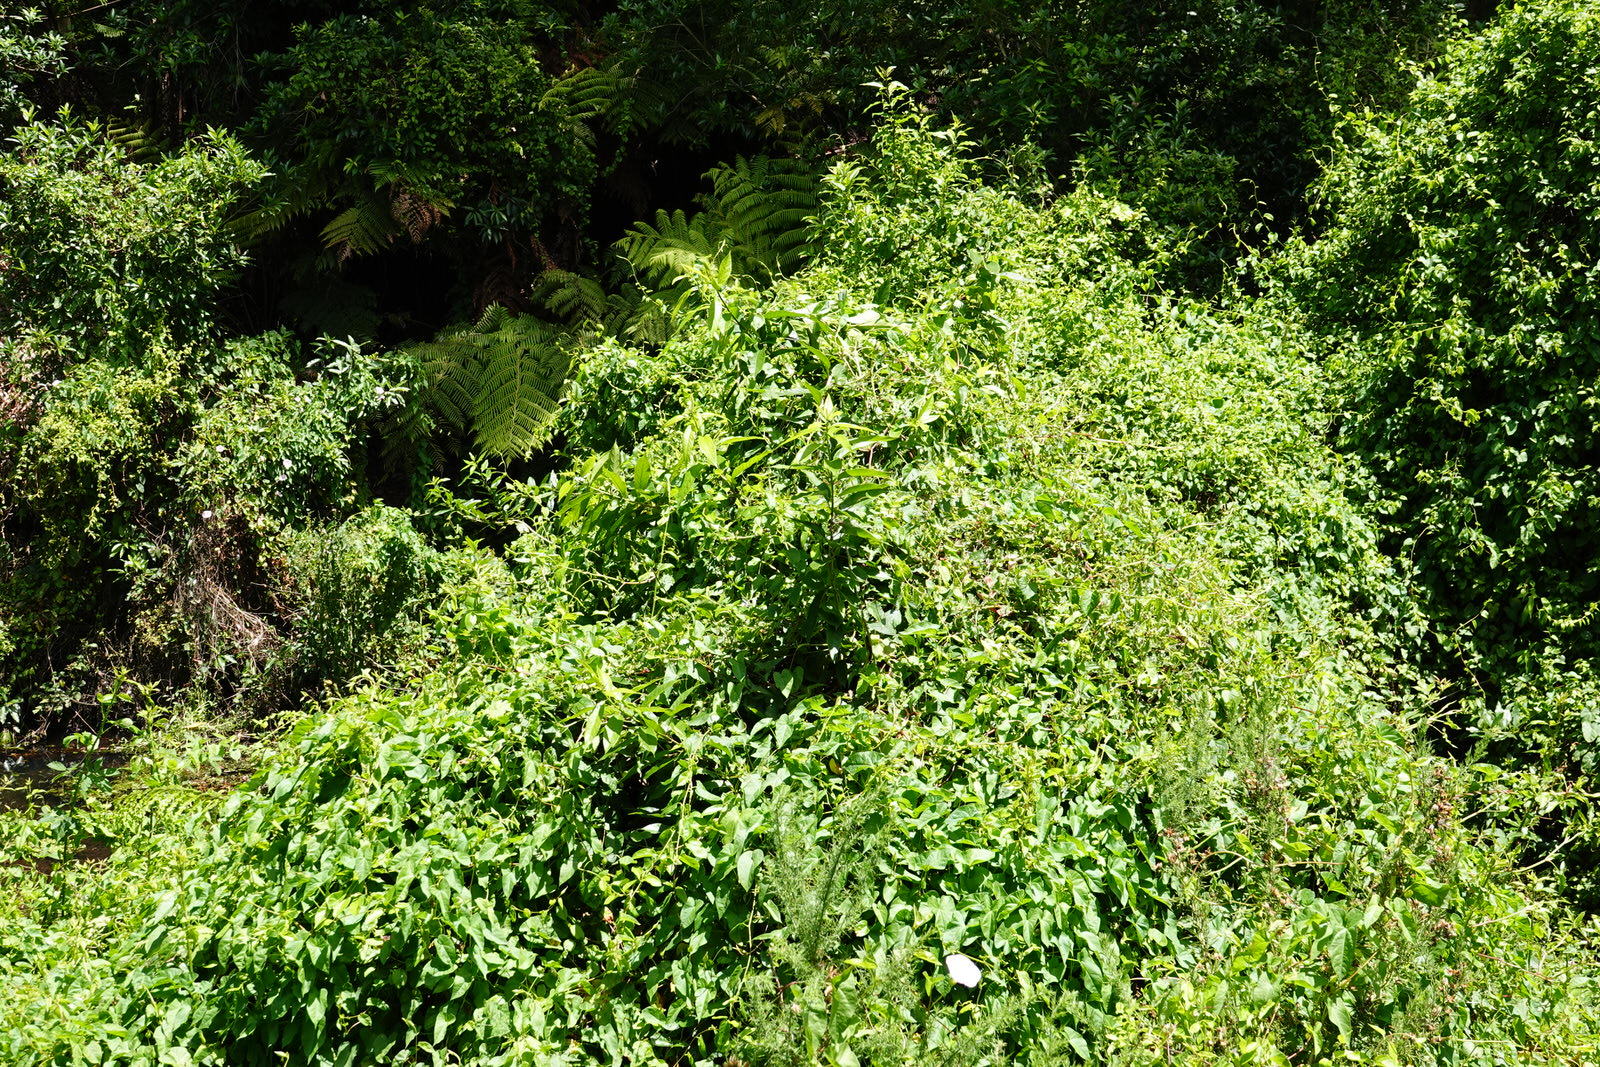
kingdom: Plantae
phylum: Tracheophyta
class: Magnoliopsida
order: Malpighiales
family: Violaceae
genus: Melicytus
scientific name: Melicytus ramiflorus
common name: Mahoe
